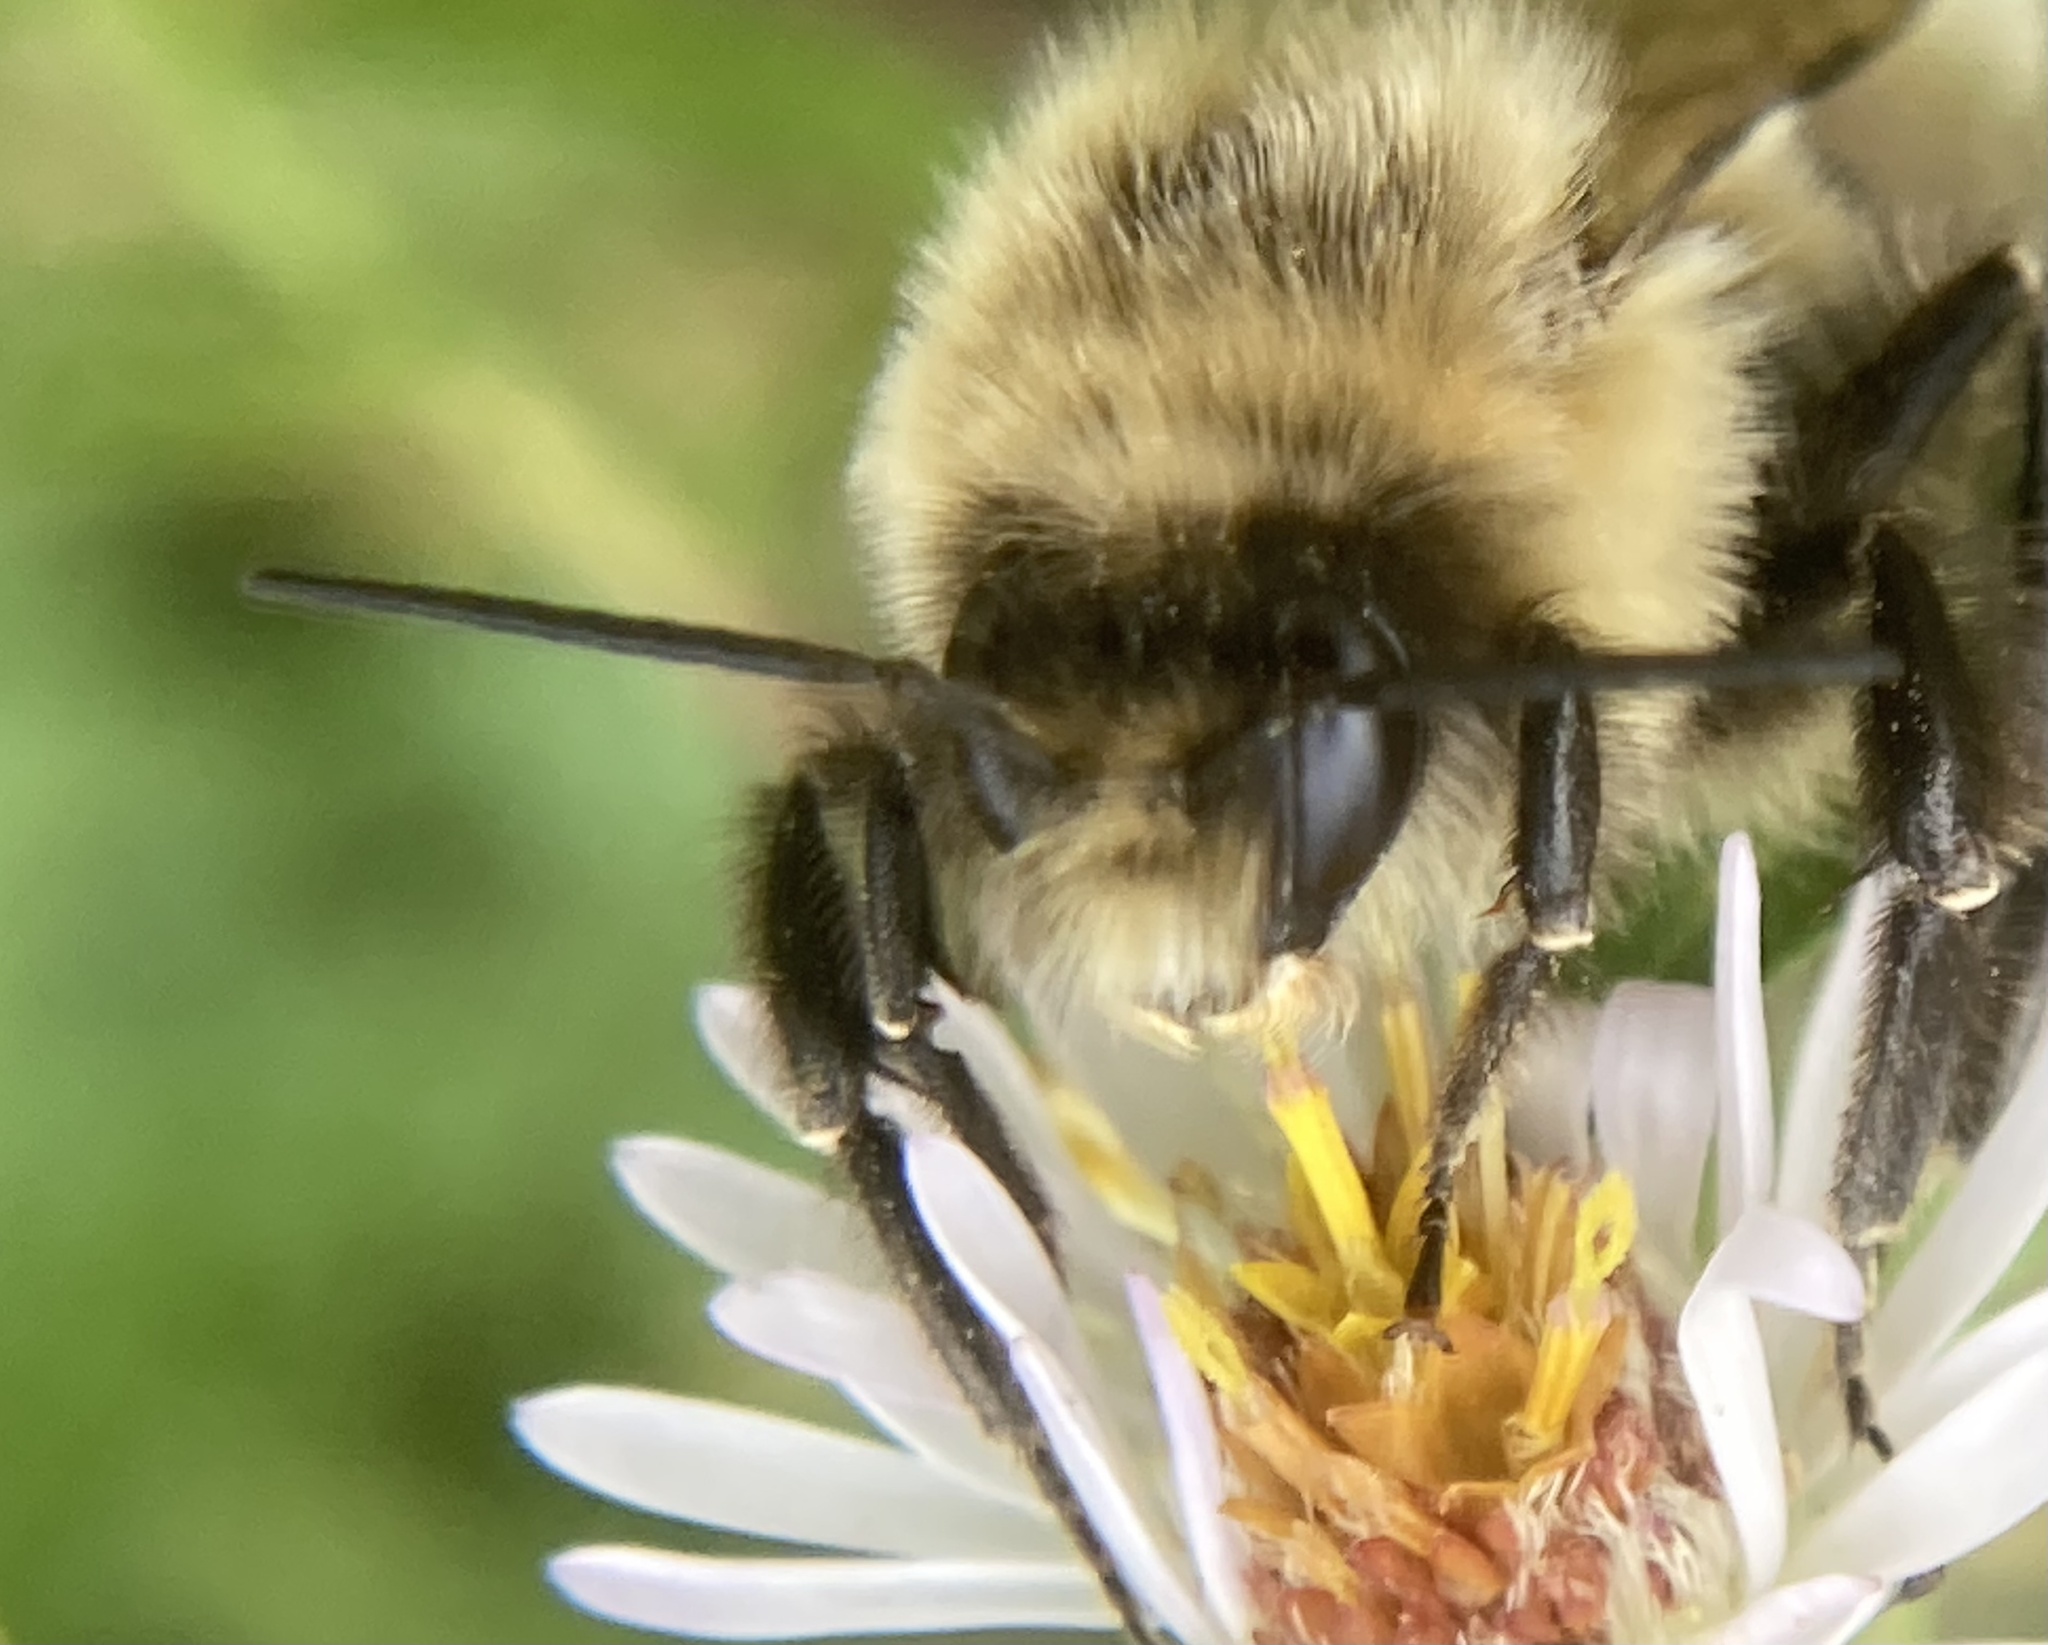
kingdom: Animalia
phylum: Arthropoda
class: Insecta
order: Hymenoptera
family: Apidae
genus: Bombus
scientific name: Bombus impatiens
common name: Common eastern bumble bee
